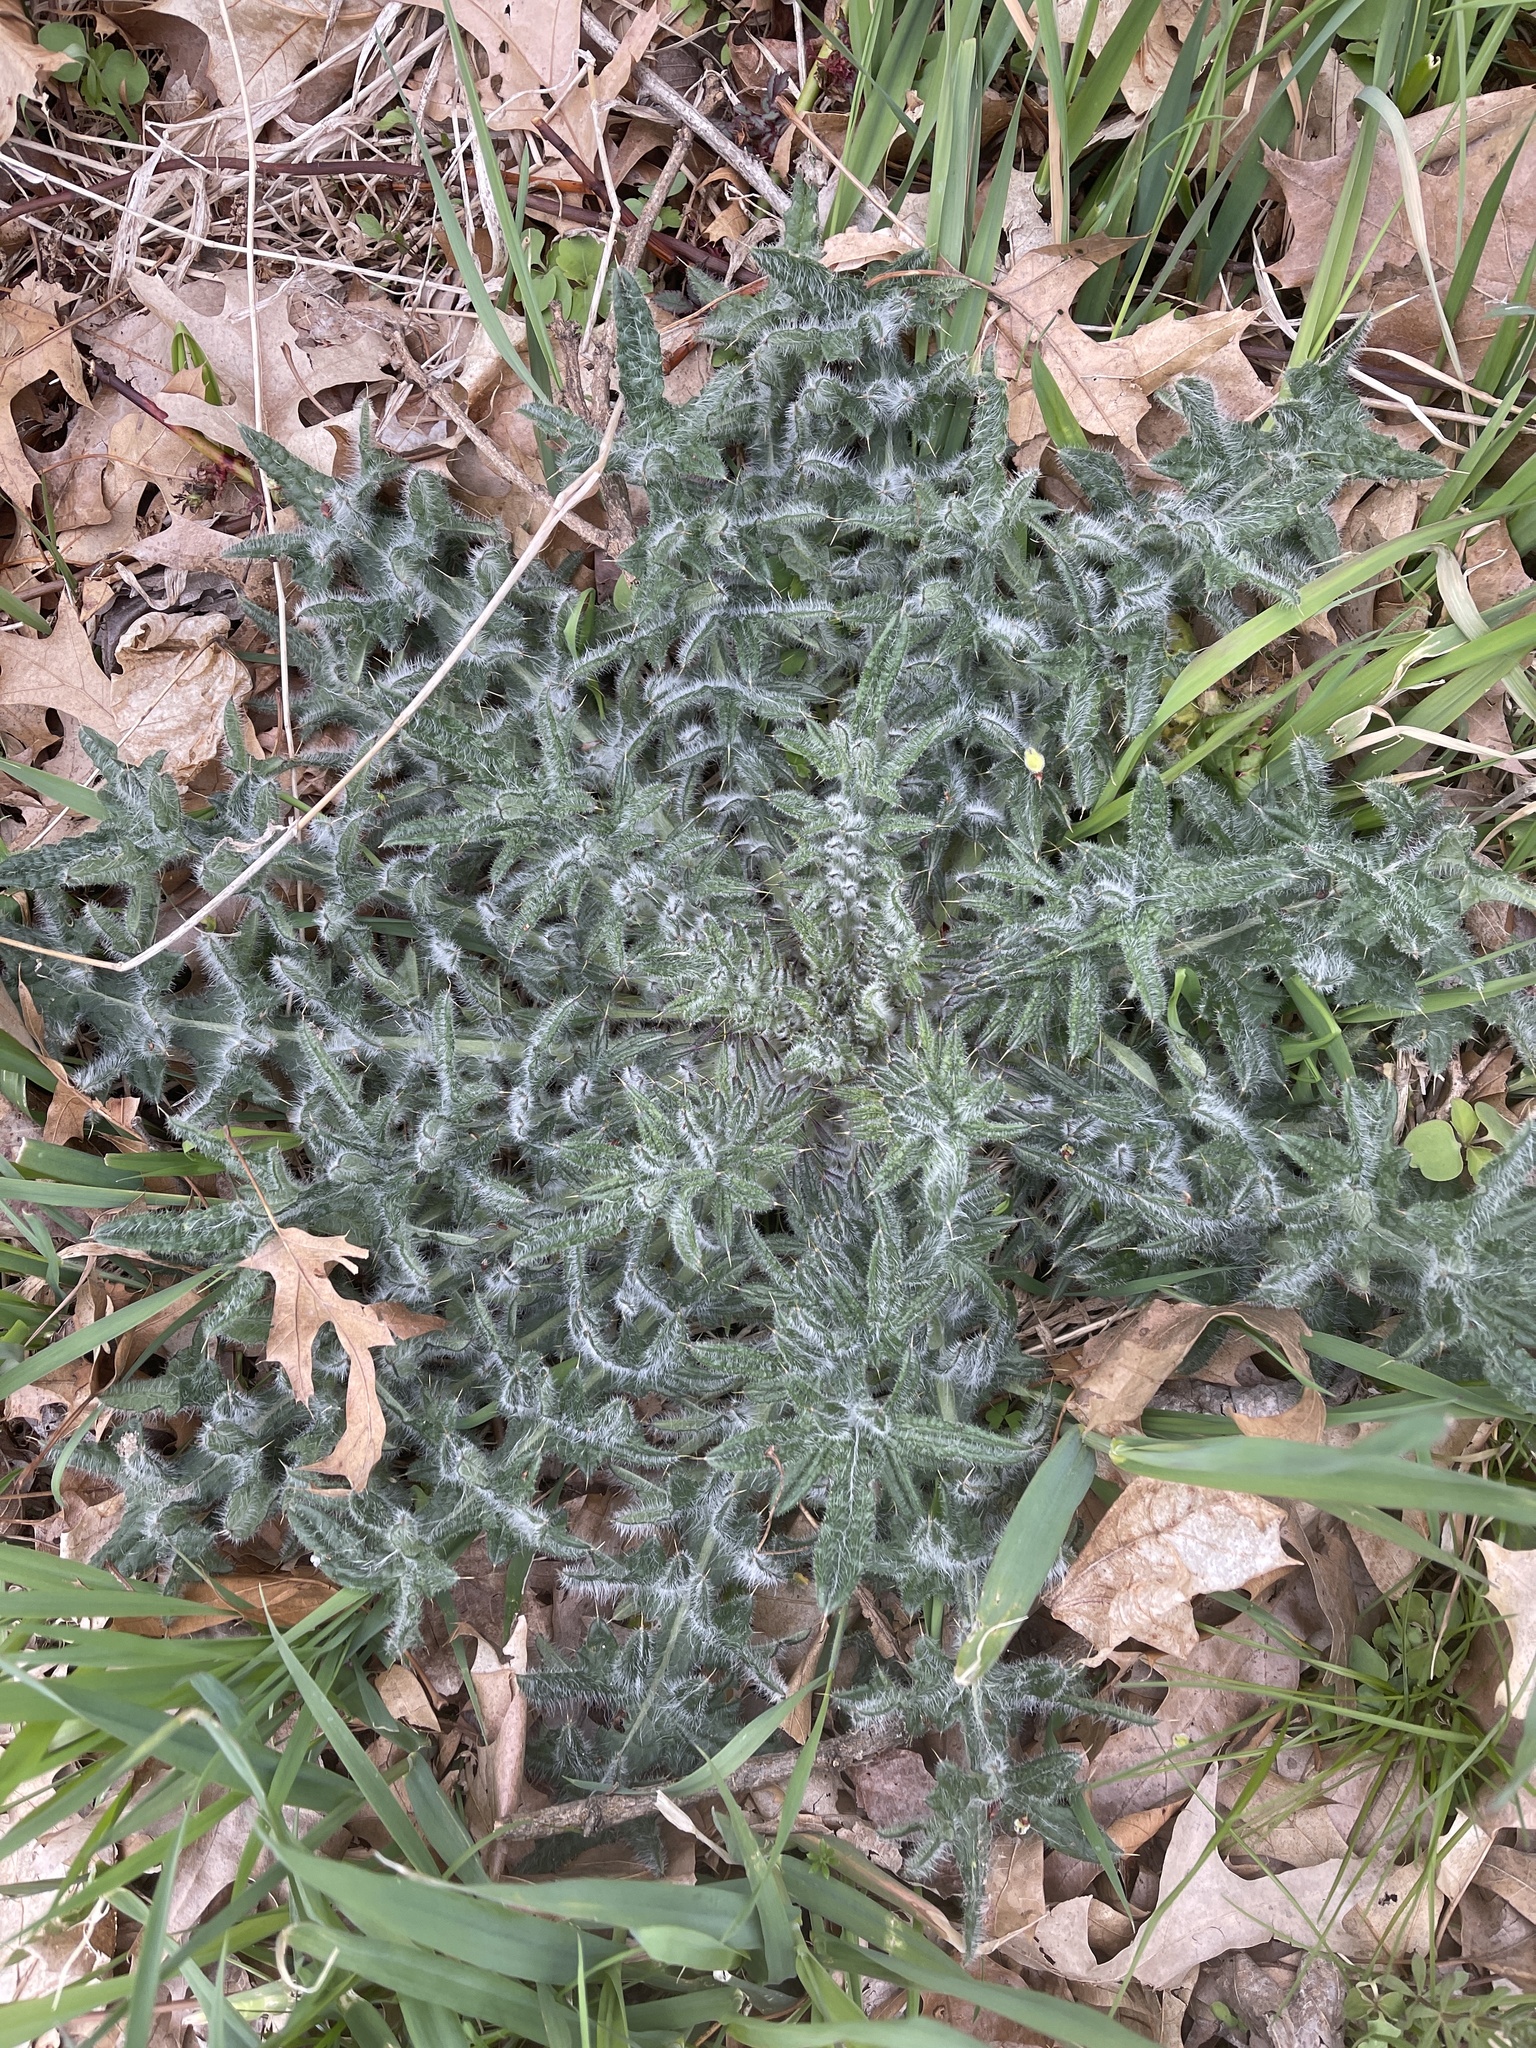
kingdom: Plantae
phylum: Tracheophyta
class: Magnoliopsida
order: Asterales
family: Asteraceae
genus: Cirsium
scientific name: Cirsium vulgare
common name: Bull thistle
